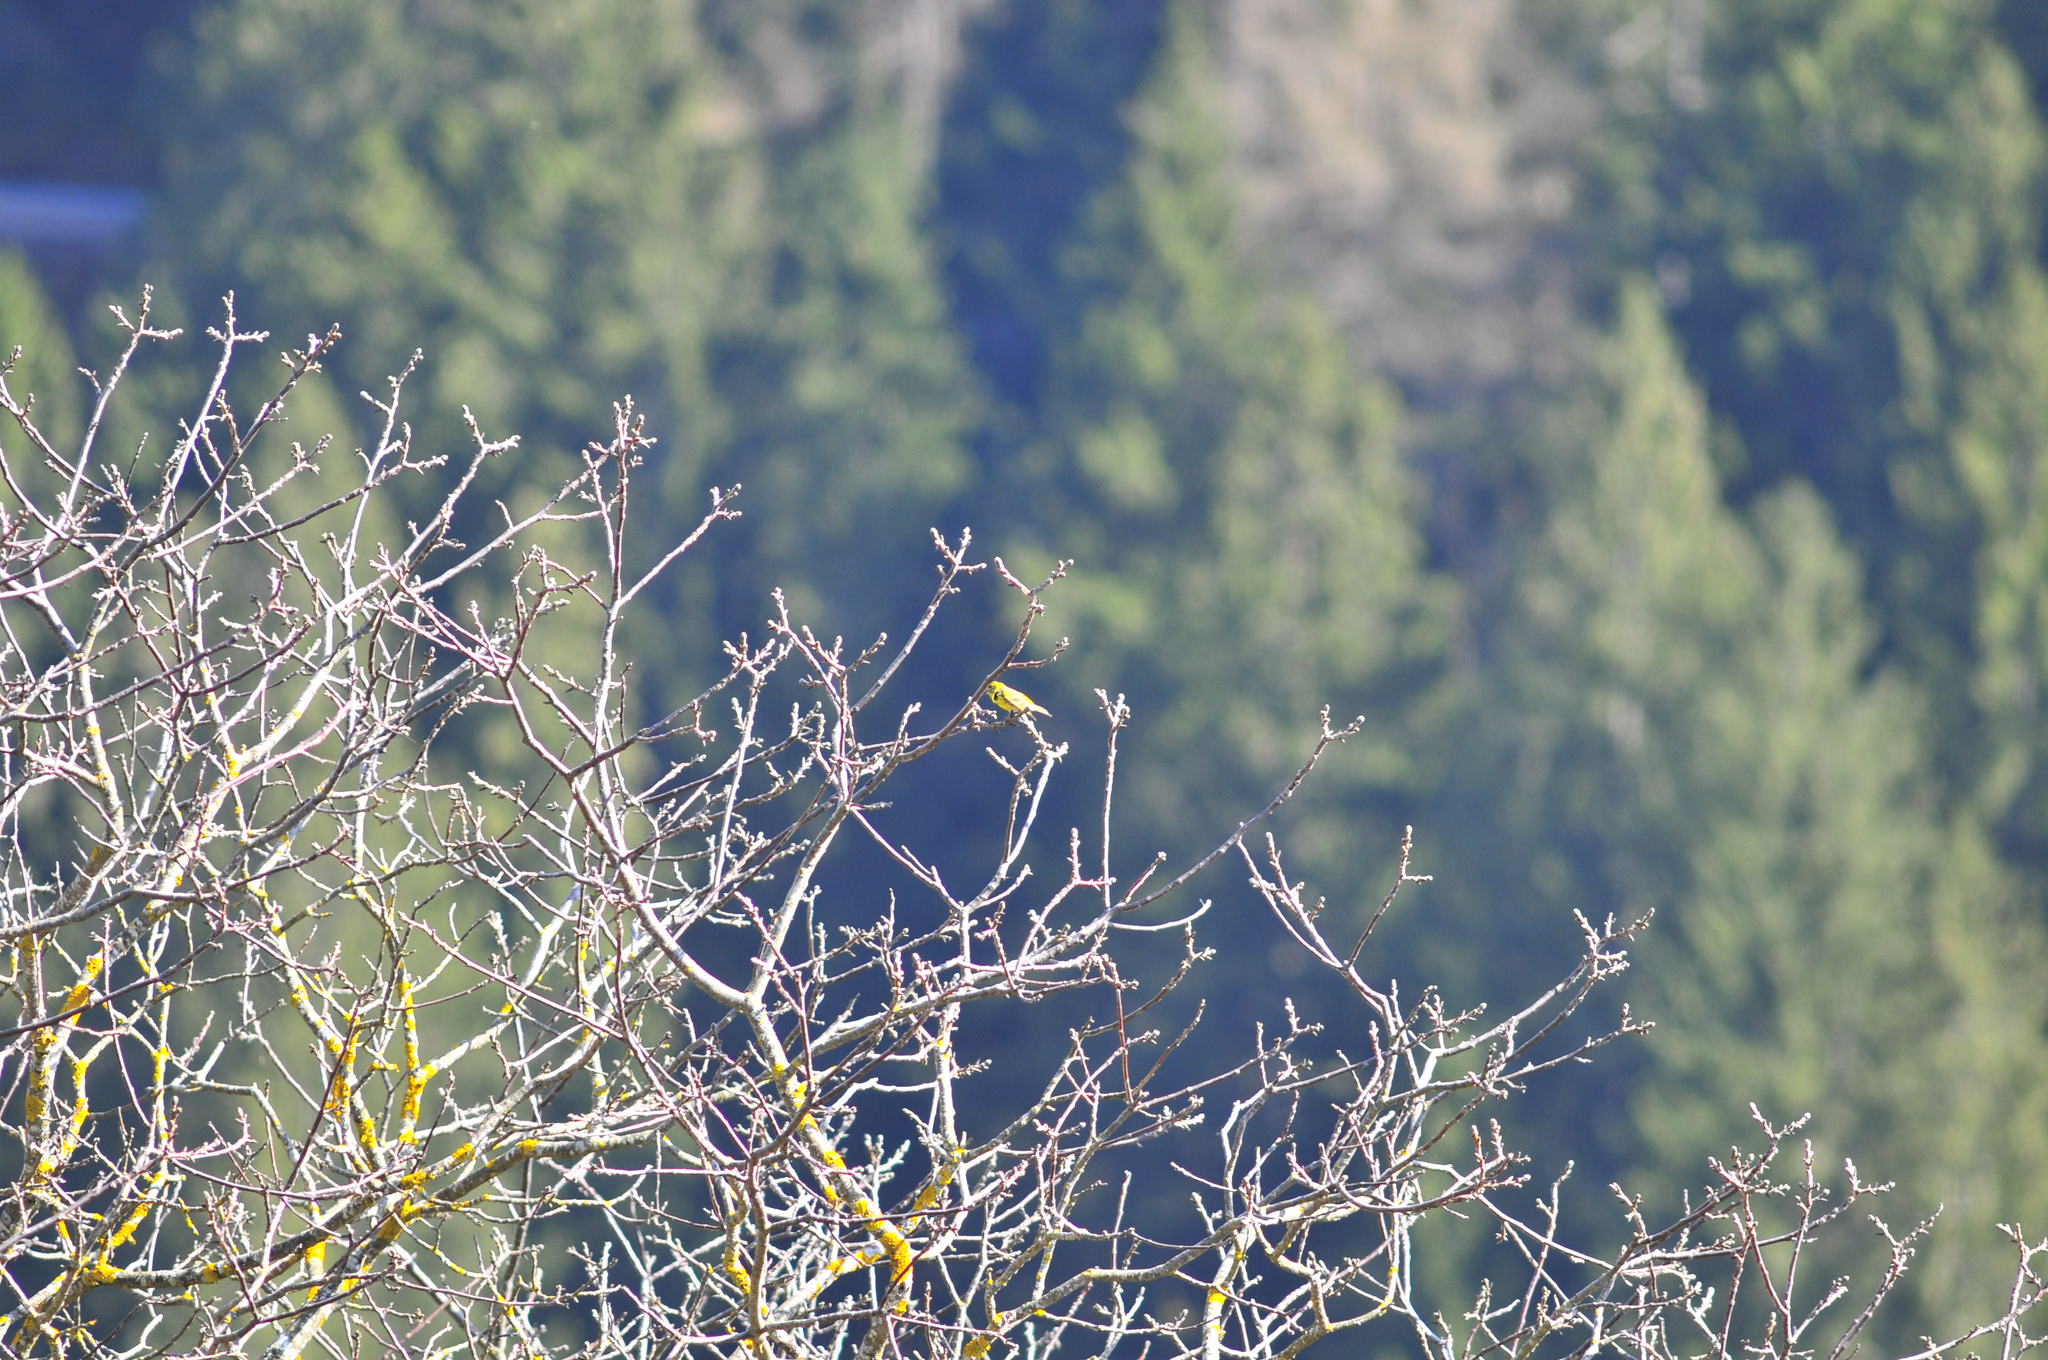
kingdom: Animalia
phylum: Chordata
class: Aves
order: Passeriformes
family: Fringillidae
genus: Serinus
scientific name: Serinus serinus
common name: European serin
